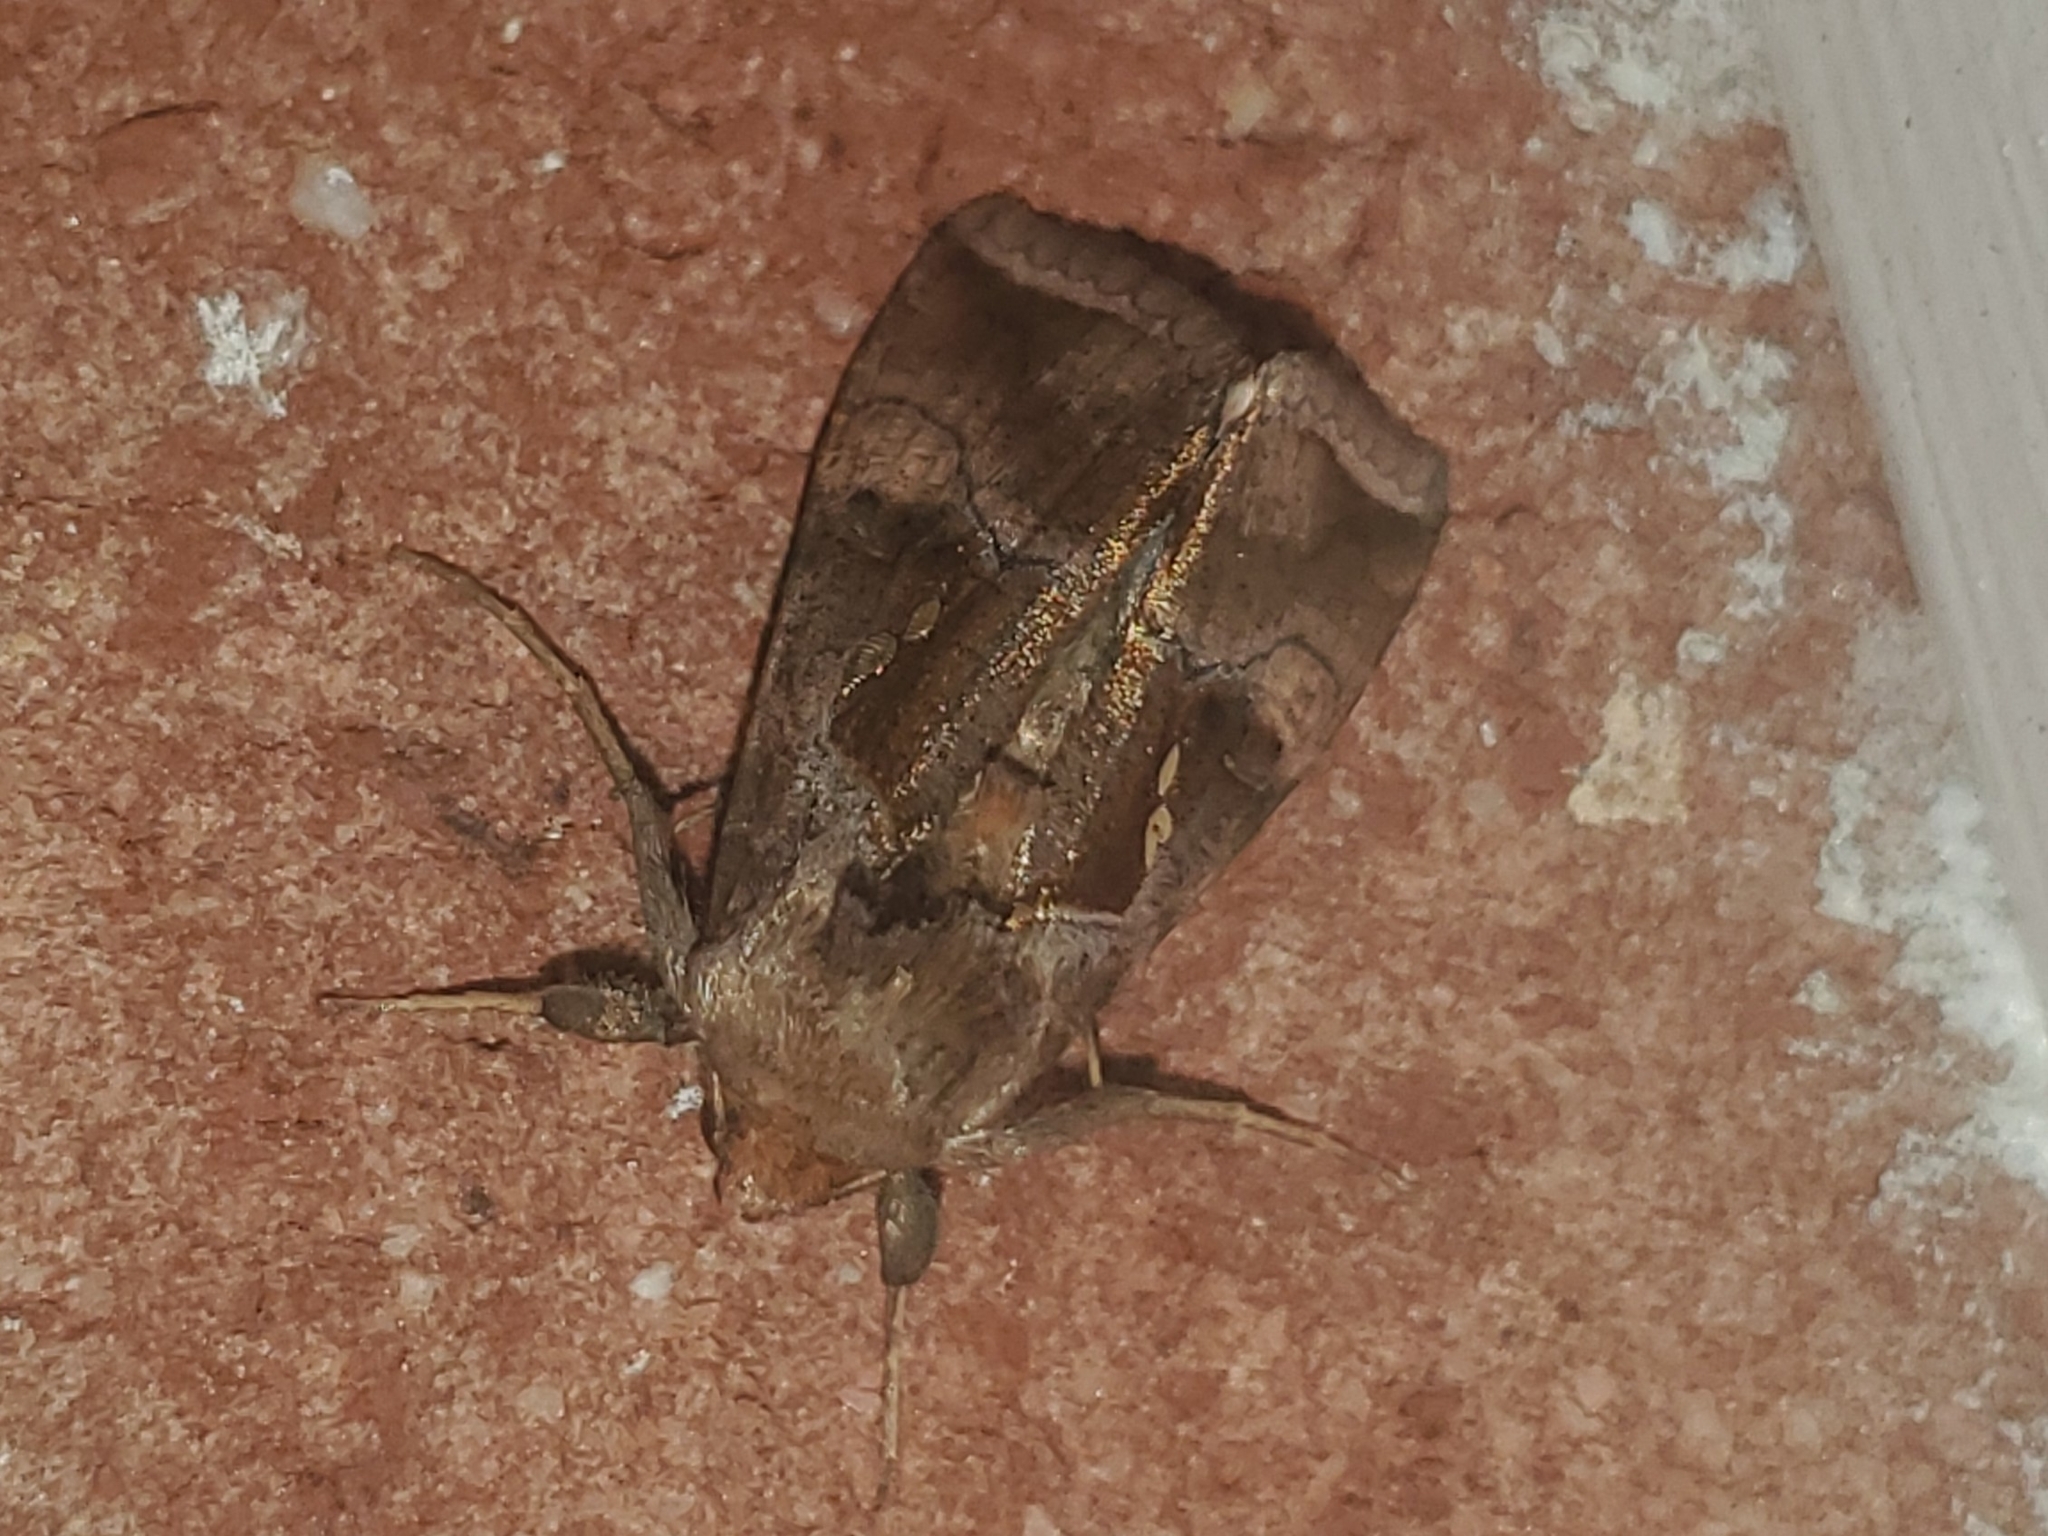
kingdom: Animalia
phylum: Arthropoda
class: Insecta
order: Lepidoptera
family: Noctuidae
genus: Enigmogramma
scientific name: Enigmogramma basigera
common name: Pink-washed looper moth
